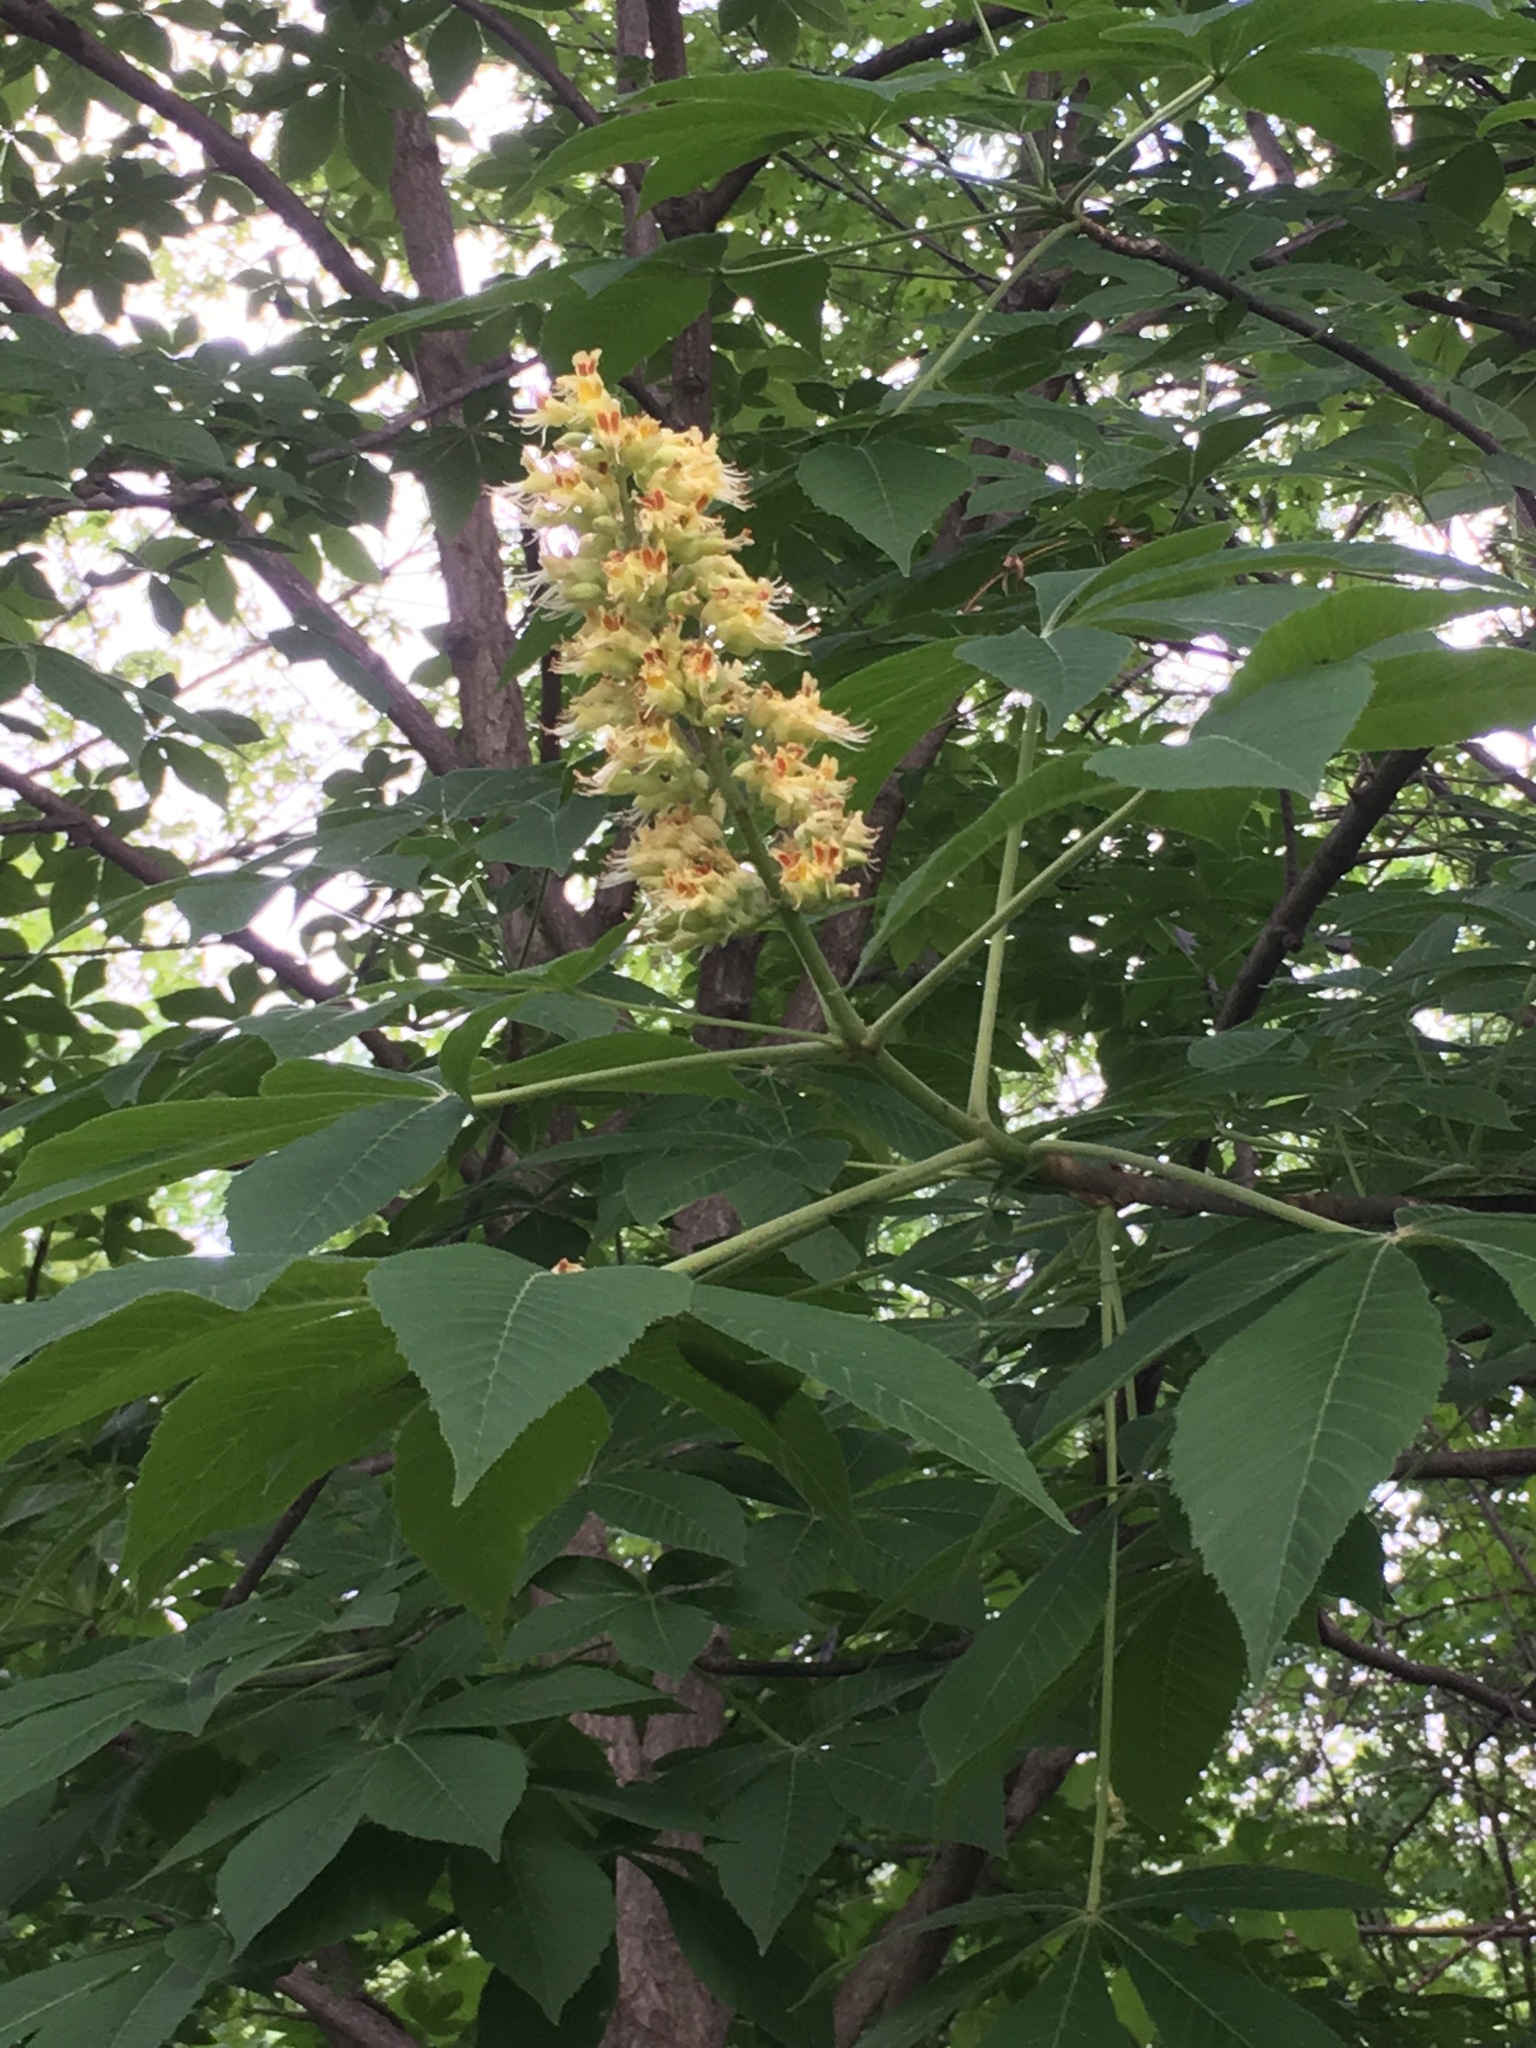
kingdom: Plantae
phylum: Tracheophyta
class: Magnoliopsida
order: Sapindales
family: Sapindaceae
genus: Aesculus
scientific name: Aesculus glabra
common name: Ohio buckeye
